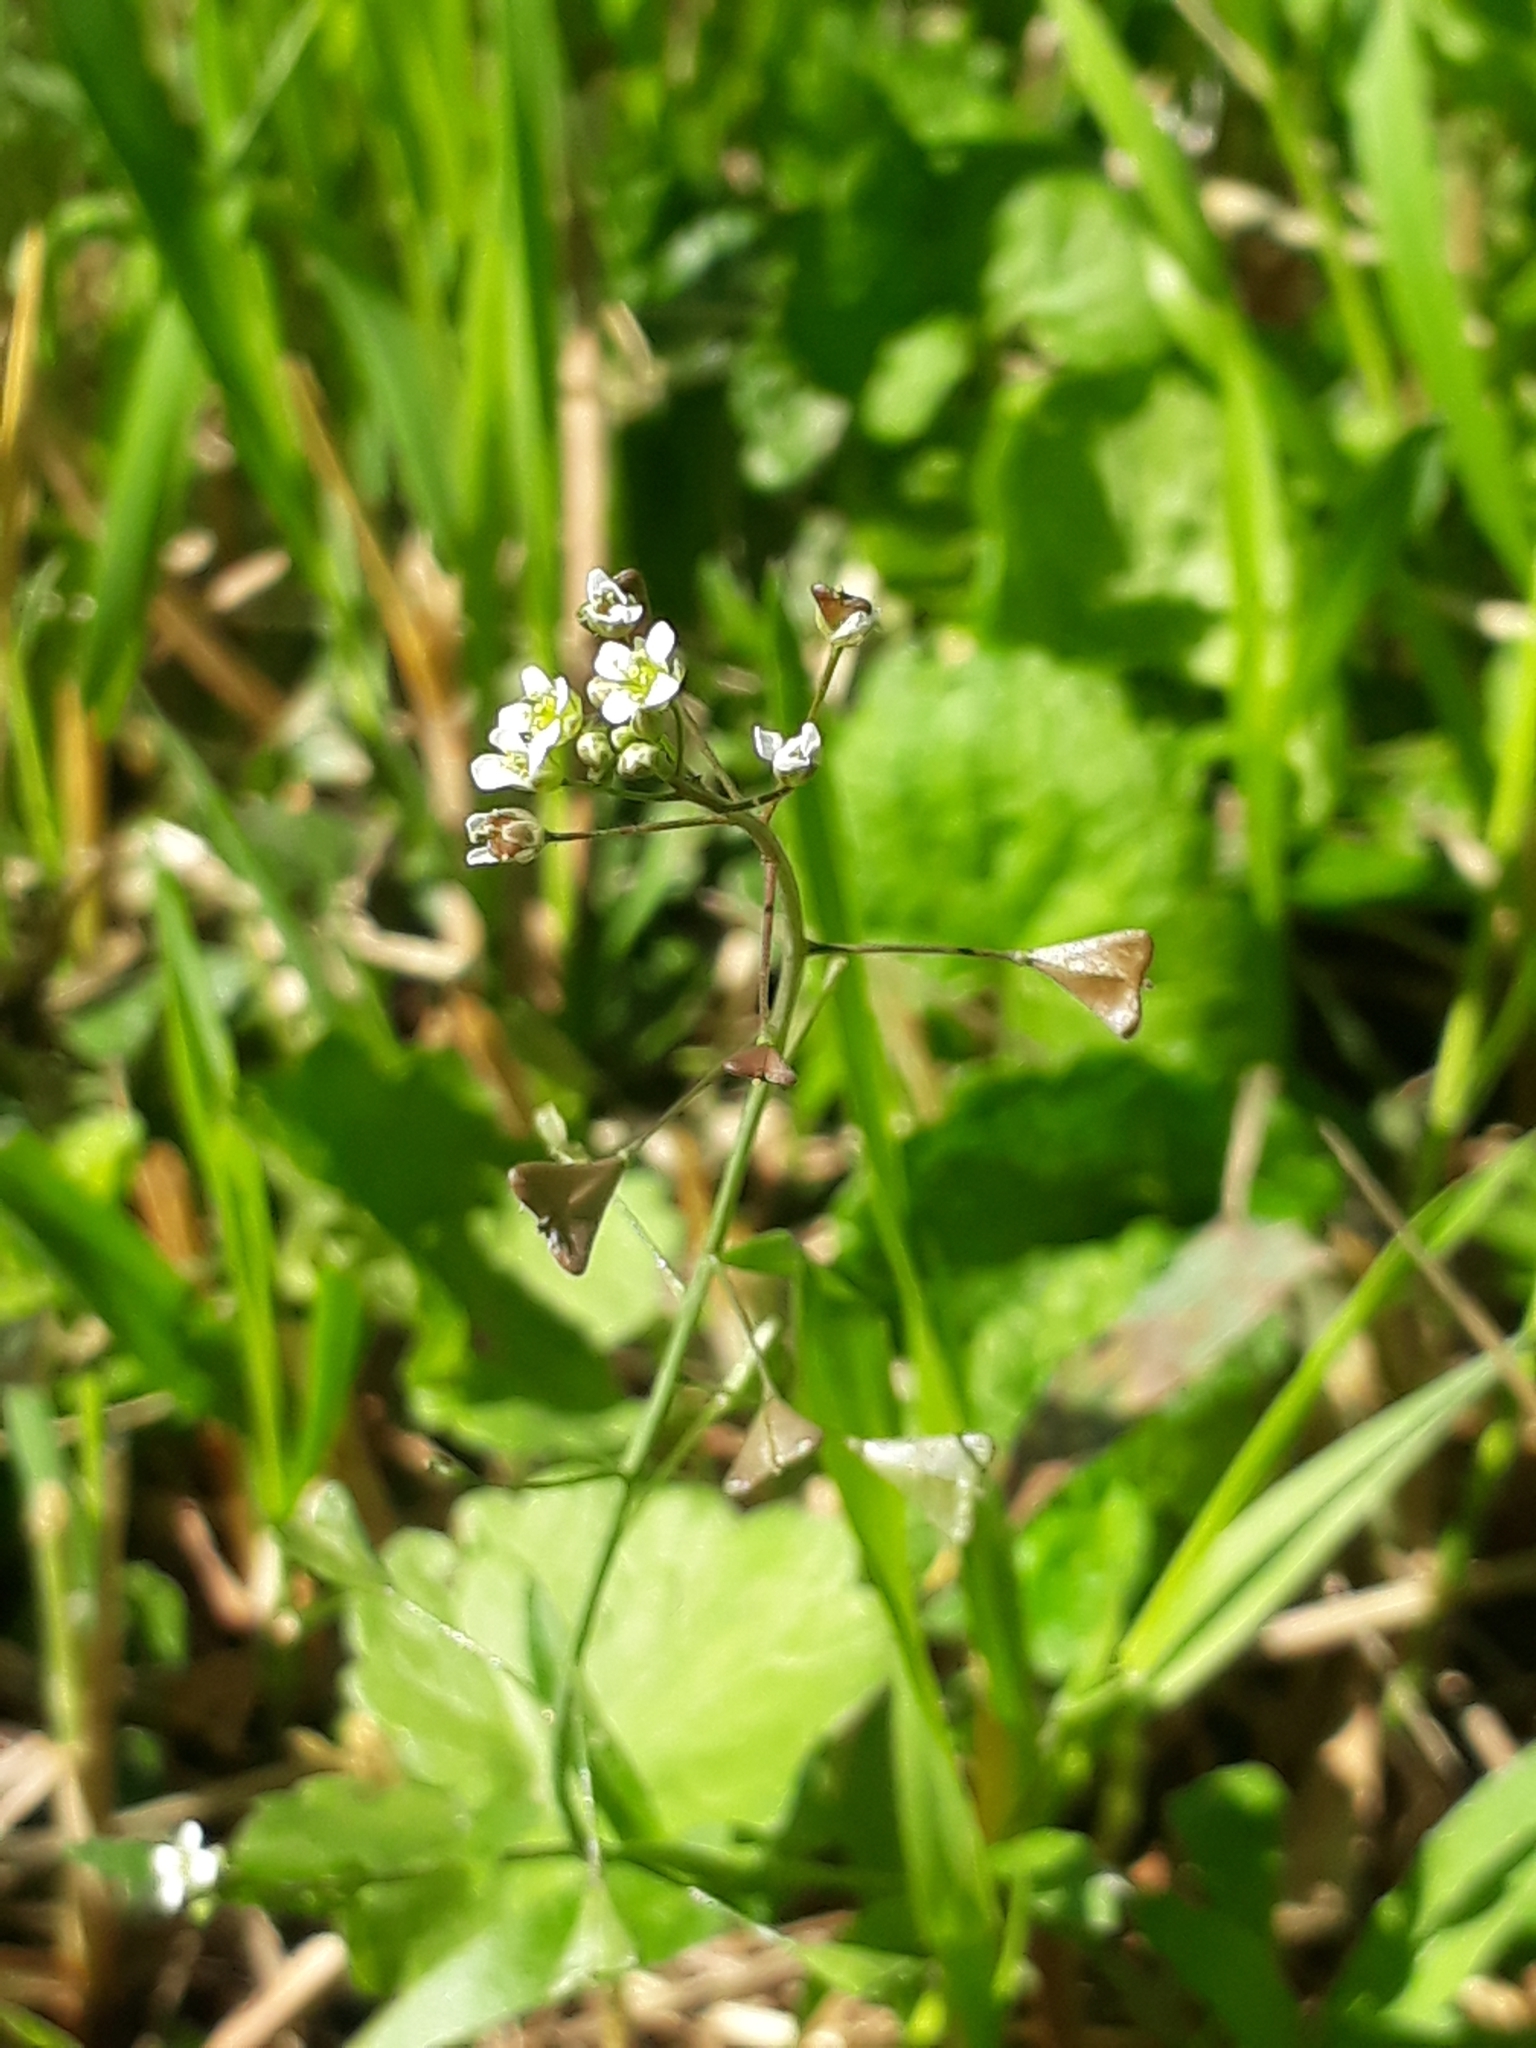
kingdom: Plantae
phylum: Tracheophyta
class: Magnoliopsida
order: Brassicales
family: Brassicaceae
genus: Capsella
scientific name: Capsella bursa-pastoris
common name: Shepherd's purse
